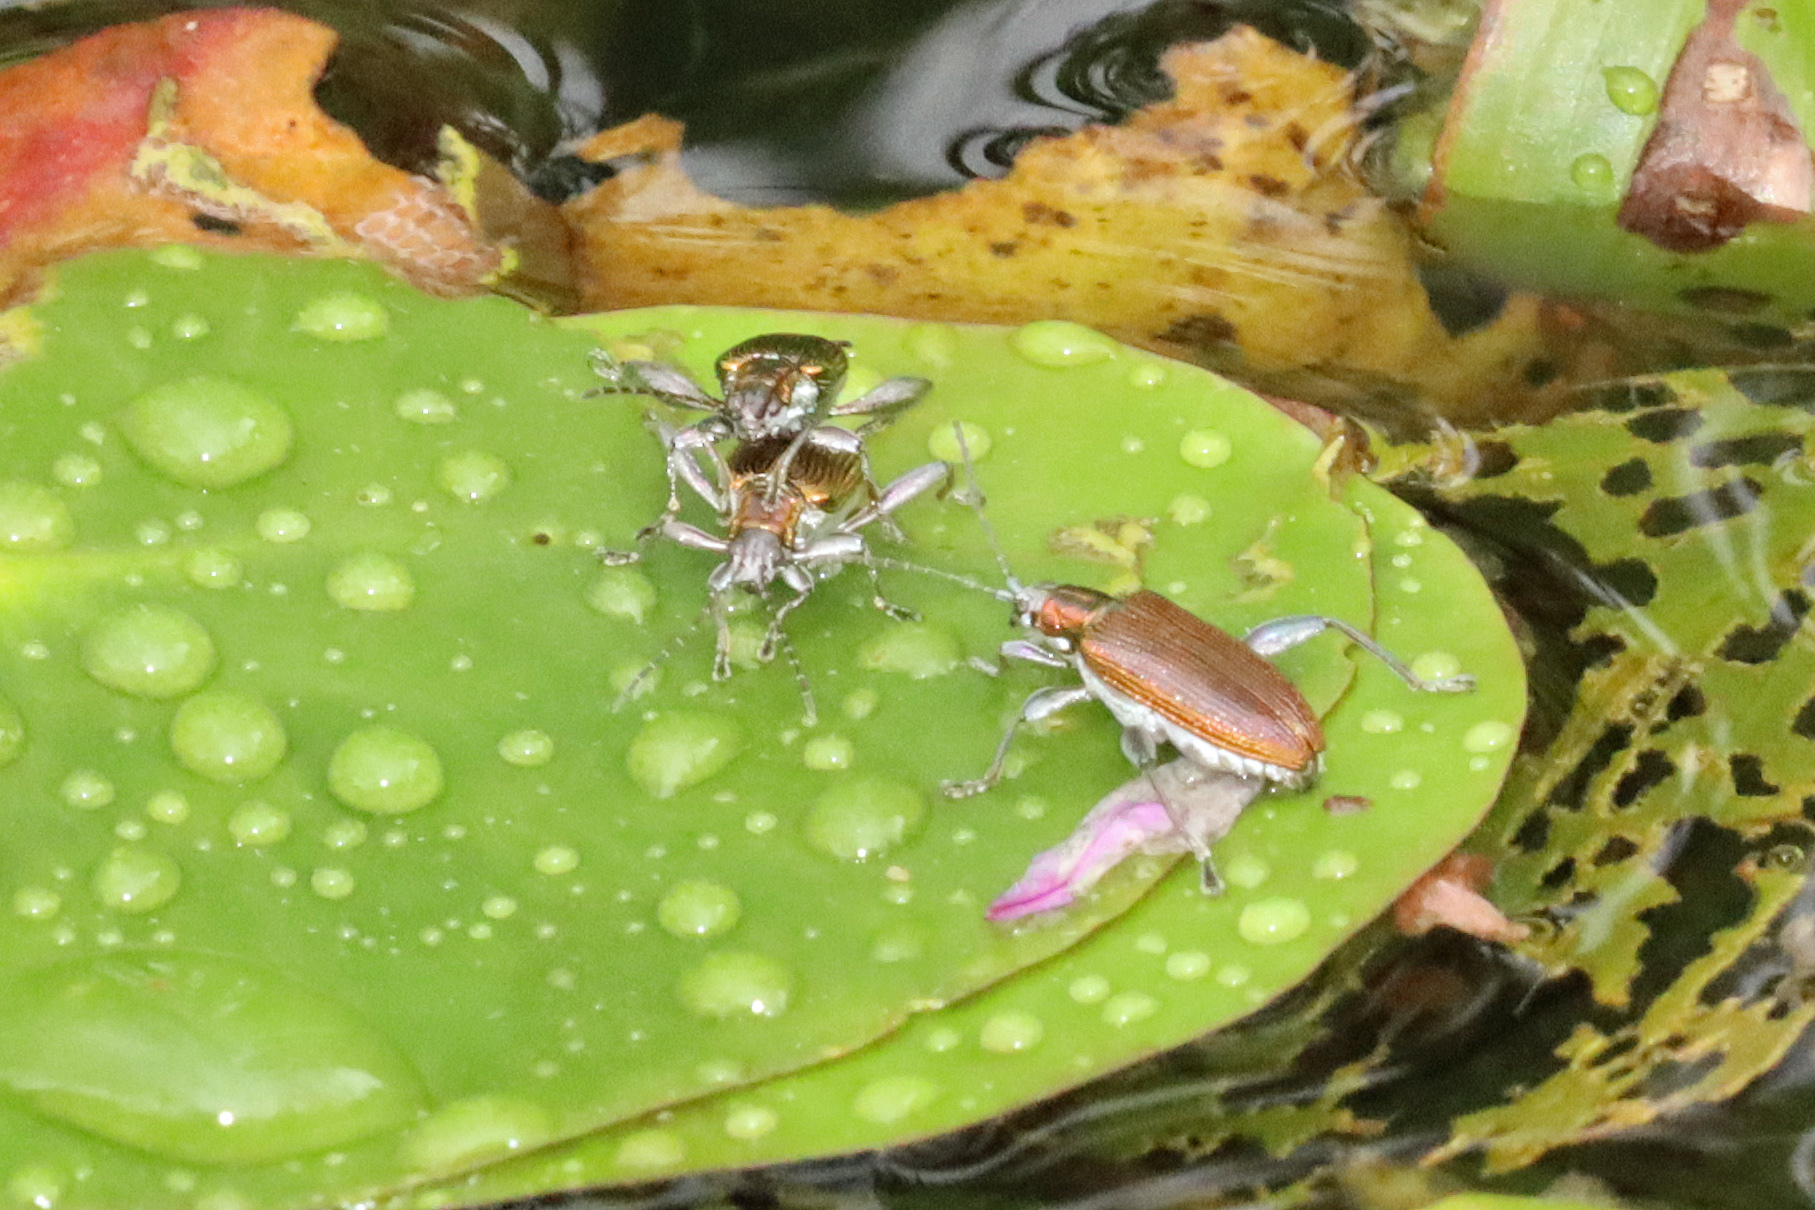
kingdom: Animalia
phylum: Arthropoda
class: Insecta
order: Coleoptera
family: Chrysomelidae
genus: Donacia
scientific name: Donacia versicolorea
